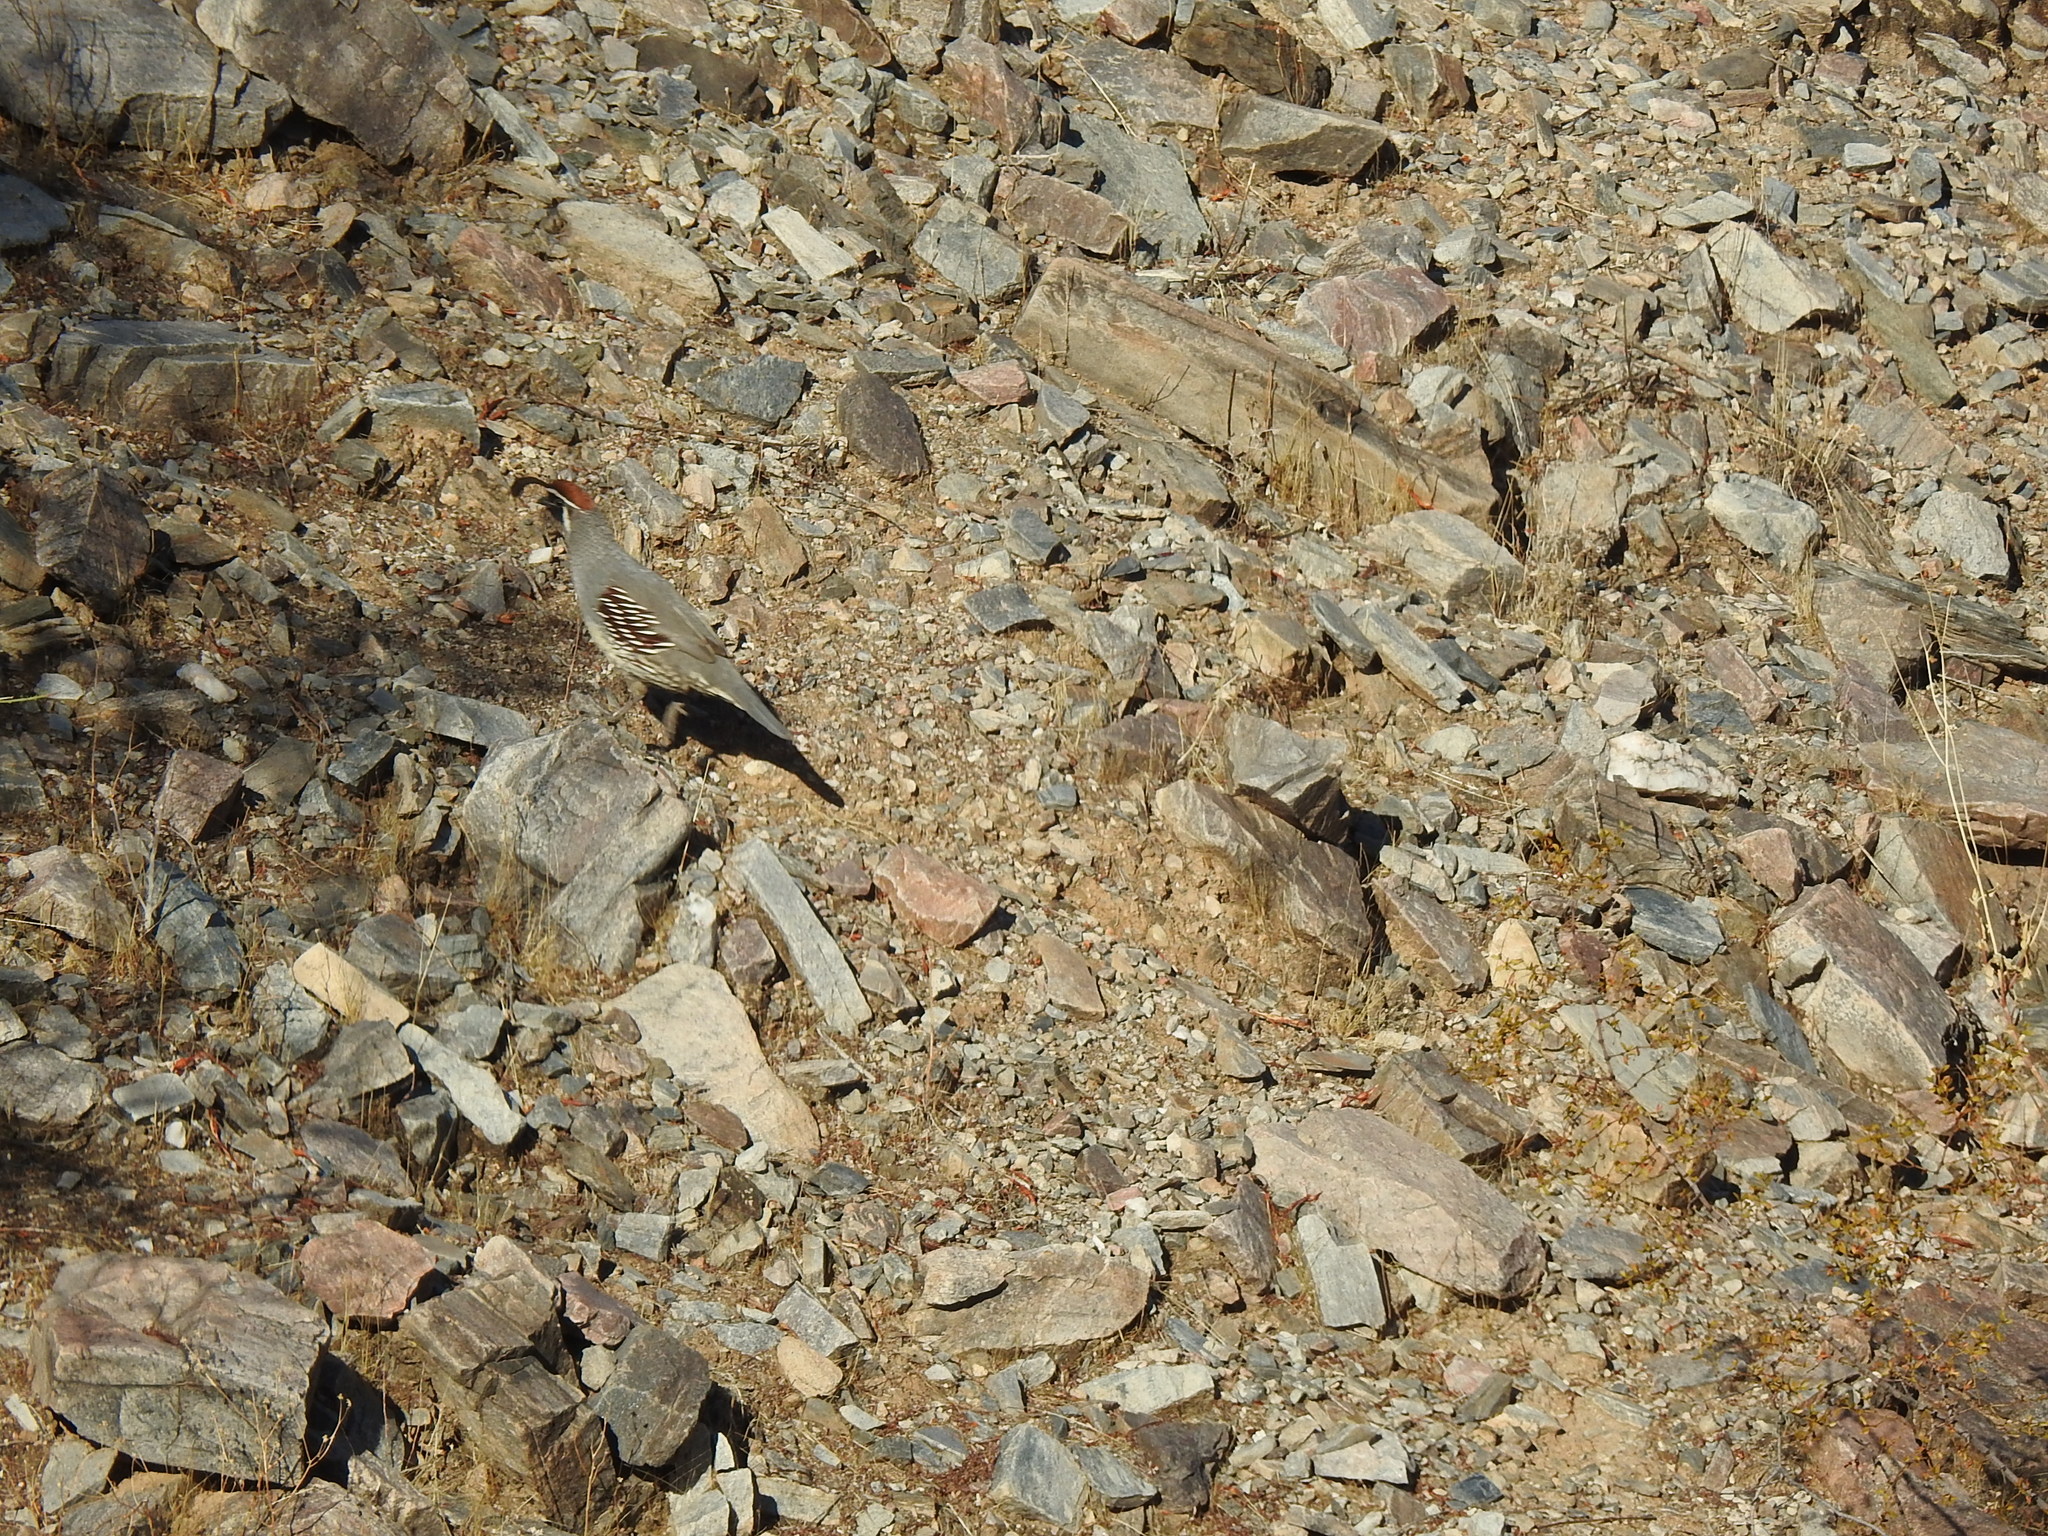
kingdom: Animalia
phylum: Chordata
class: Aves
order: Galliformes
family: Odontophoridae
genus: Callipepla
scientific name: Callipepla gambelii
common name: Gambel's quail
